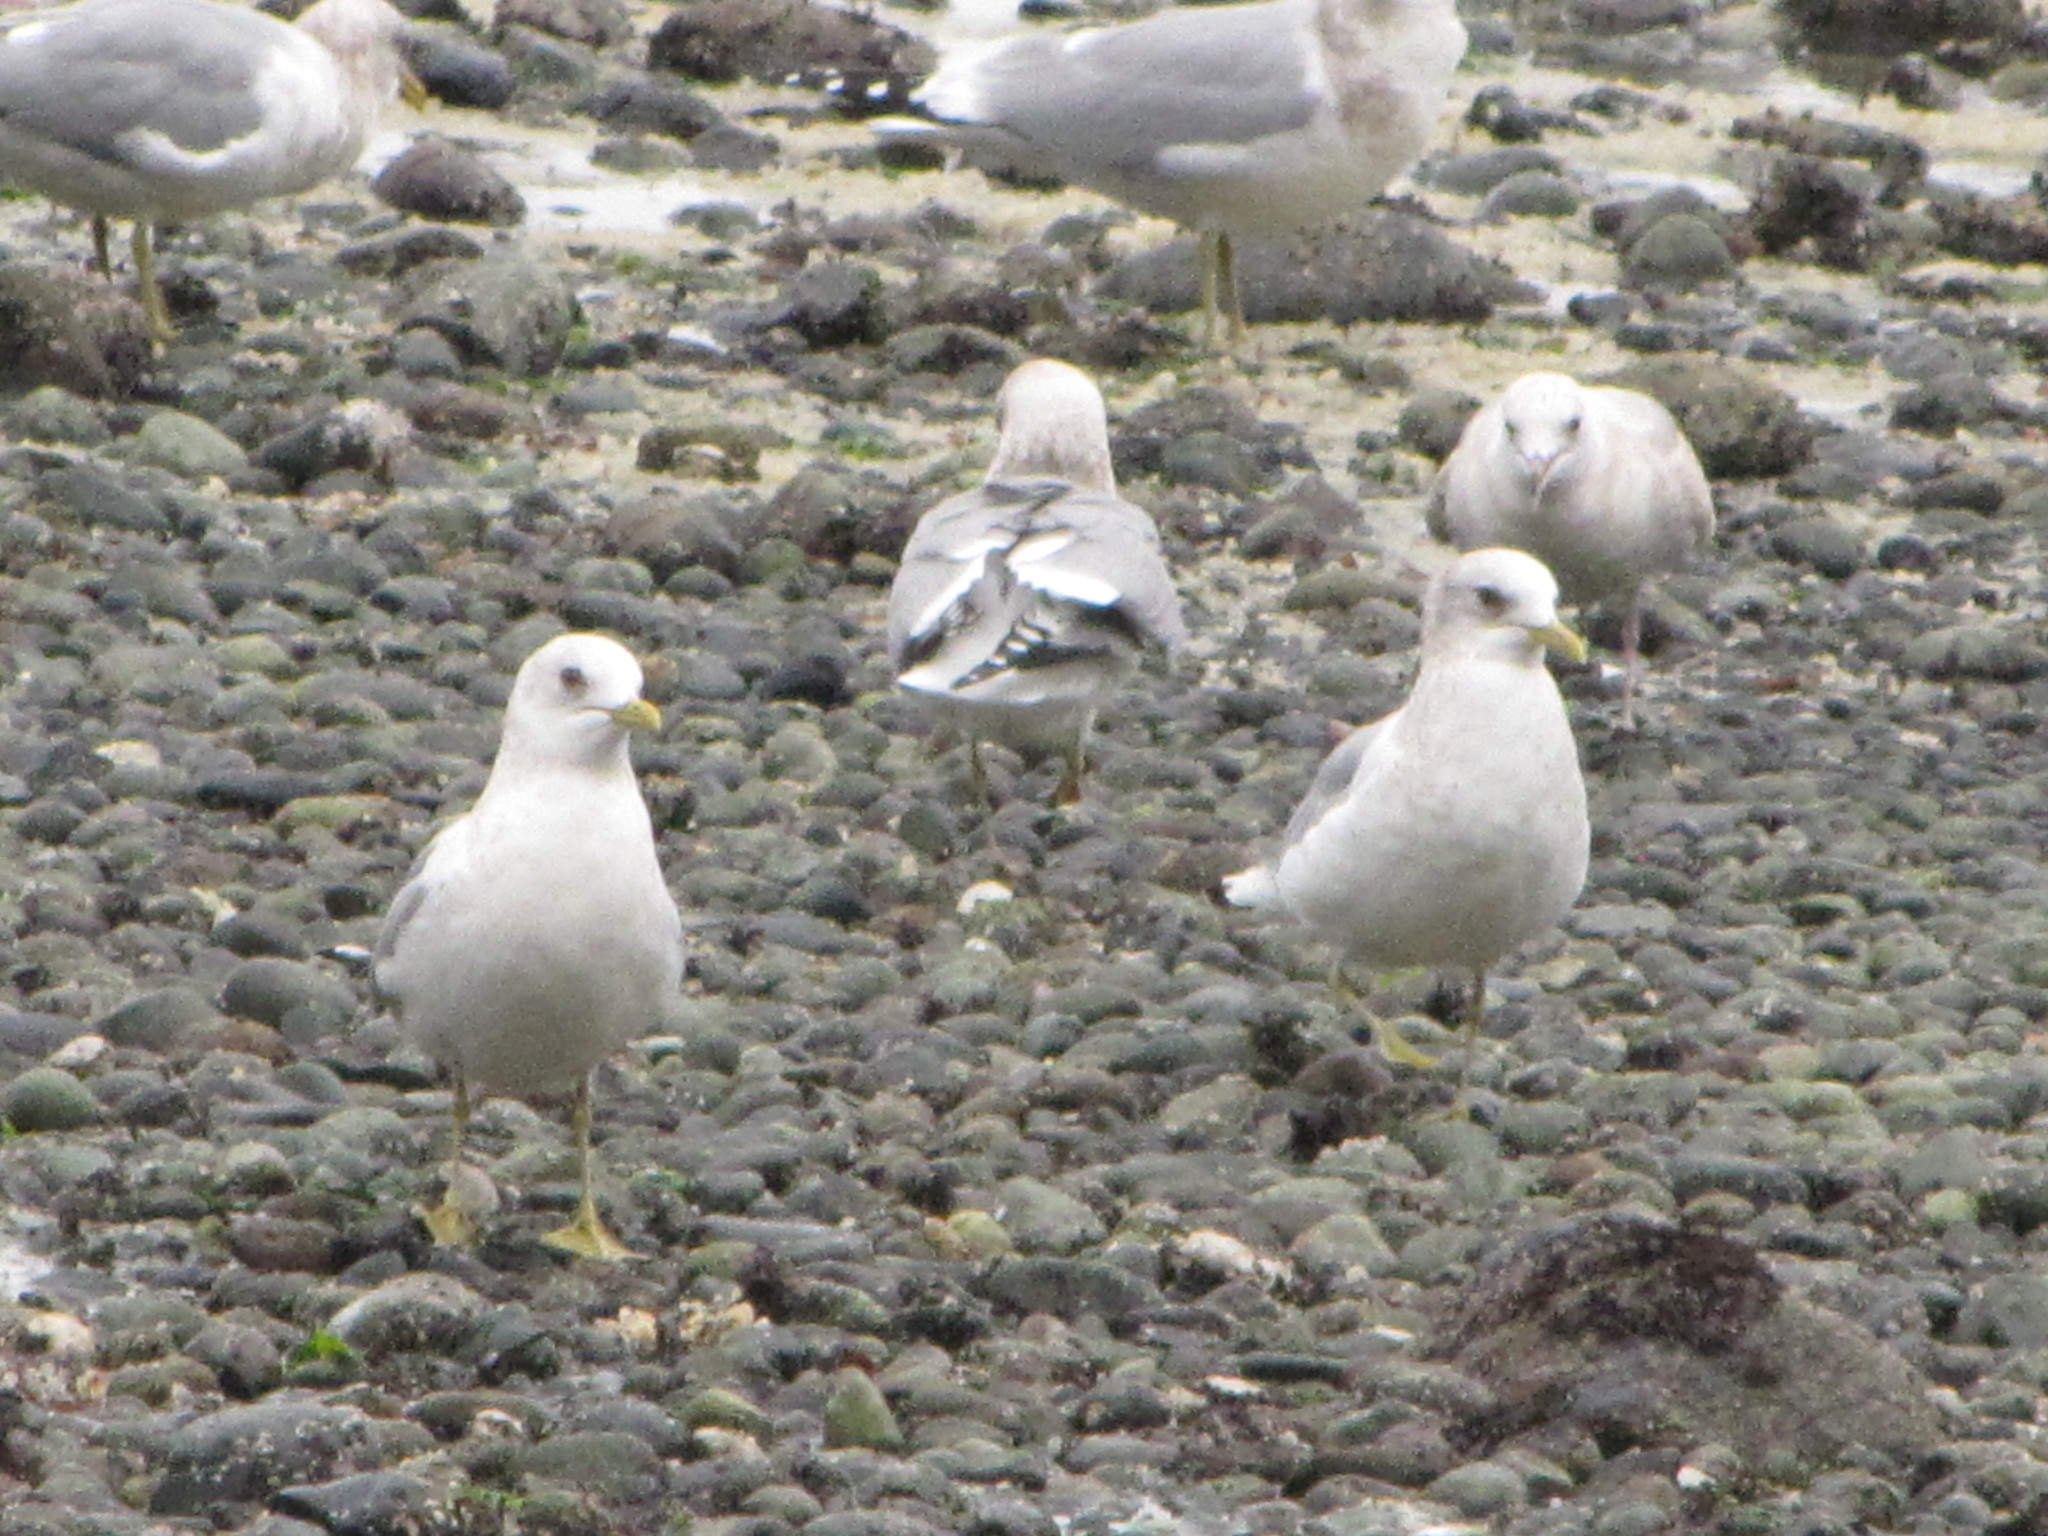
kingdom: Animalia
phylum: Chordata
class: Aves
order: Charadriiformes
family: Laridae
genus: Larus
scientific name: Larus brachyrhynchus
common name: Short-billed gull
